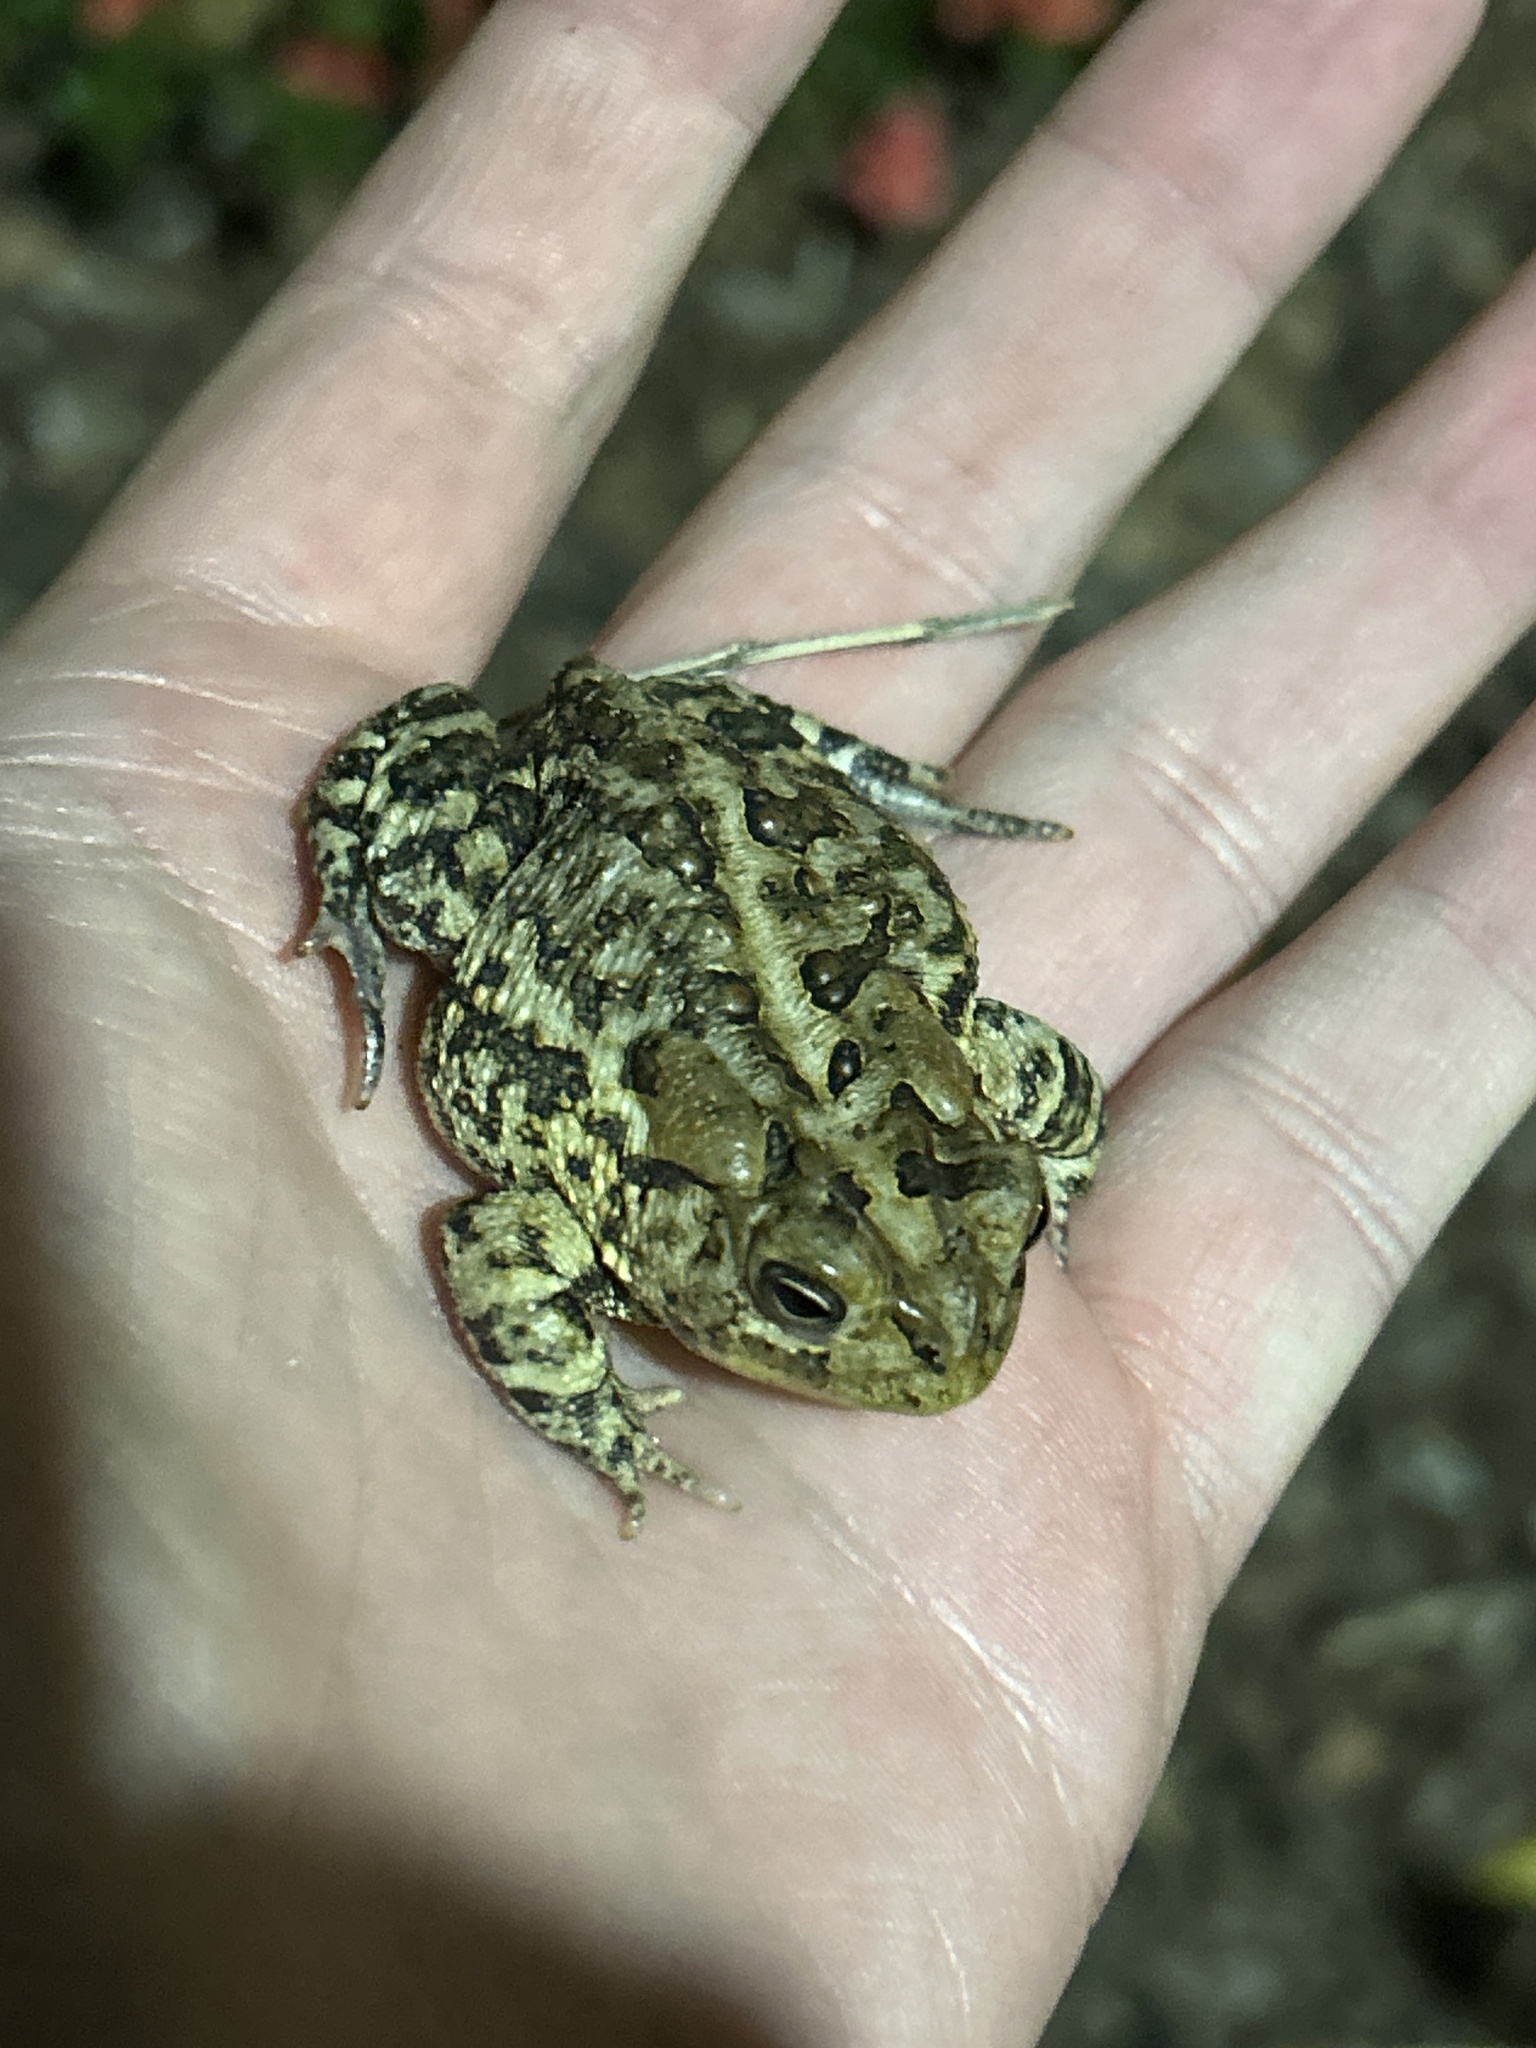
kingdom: Animalia
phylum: Chordata
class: Amphibia
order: Anura
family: Bufonidae
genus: Anaxyrus
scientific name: Anaxyrus terrestris
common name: Southern toad
